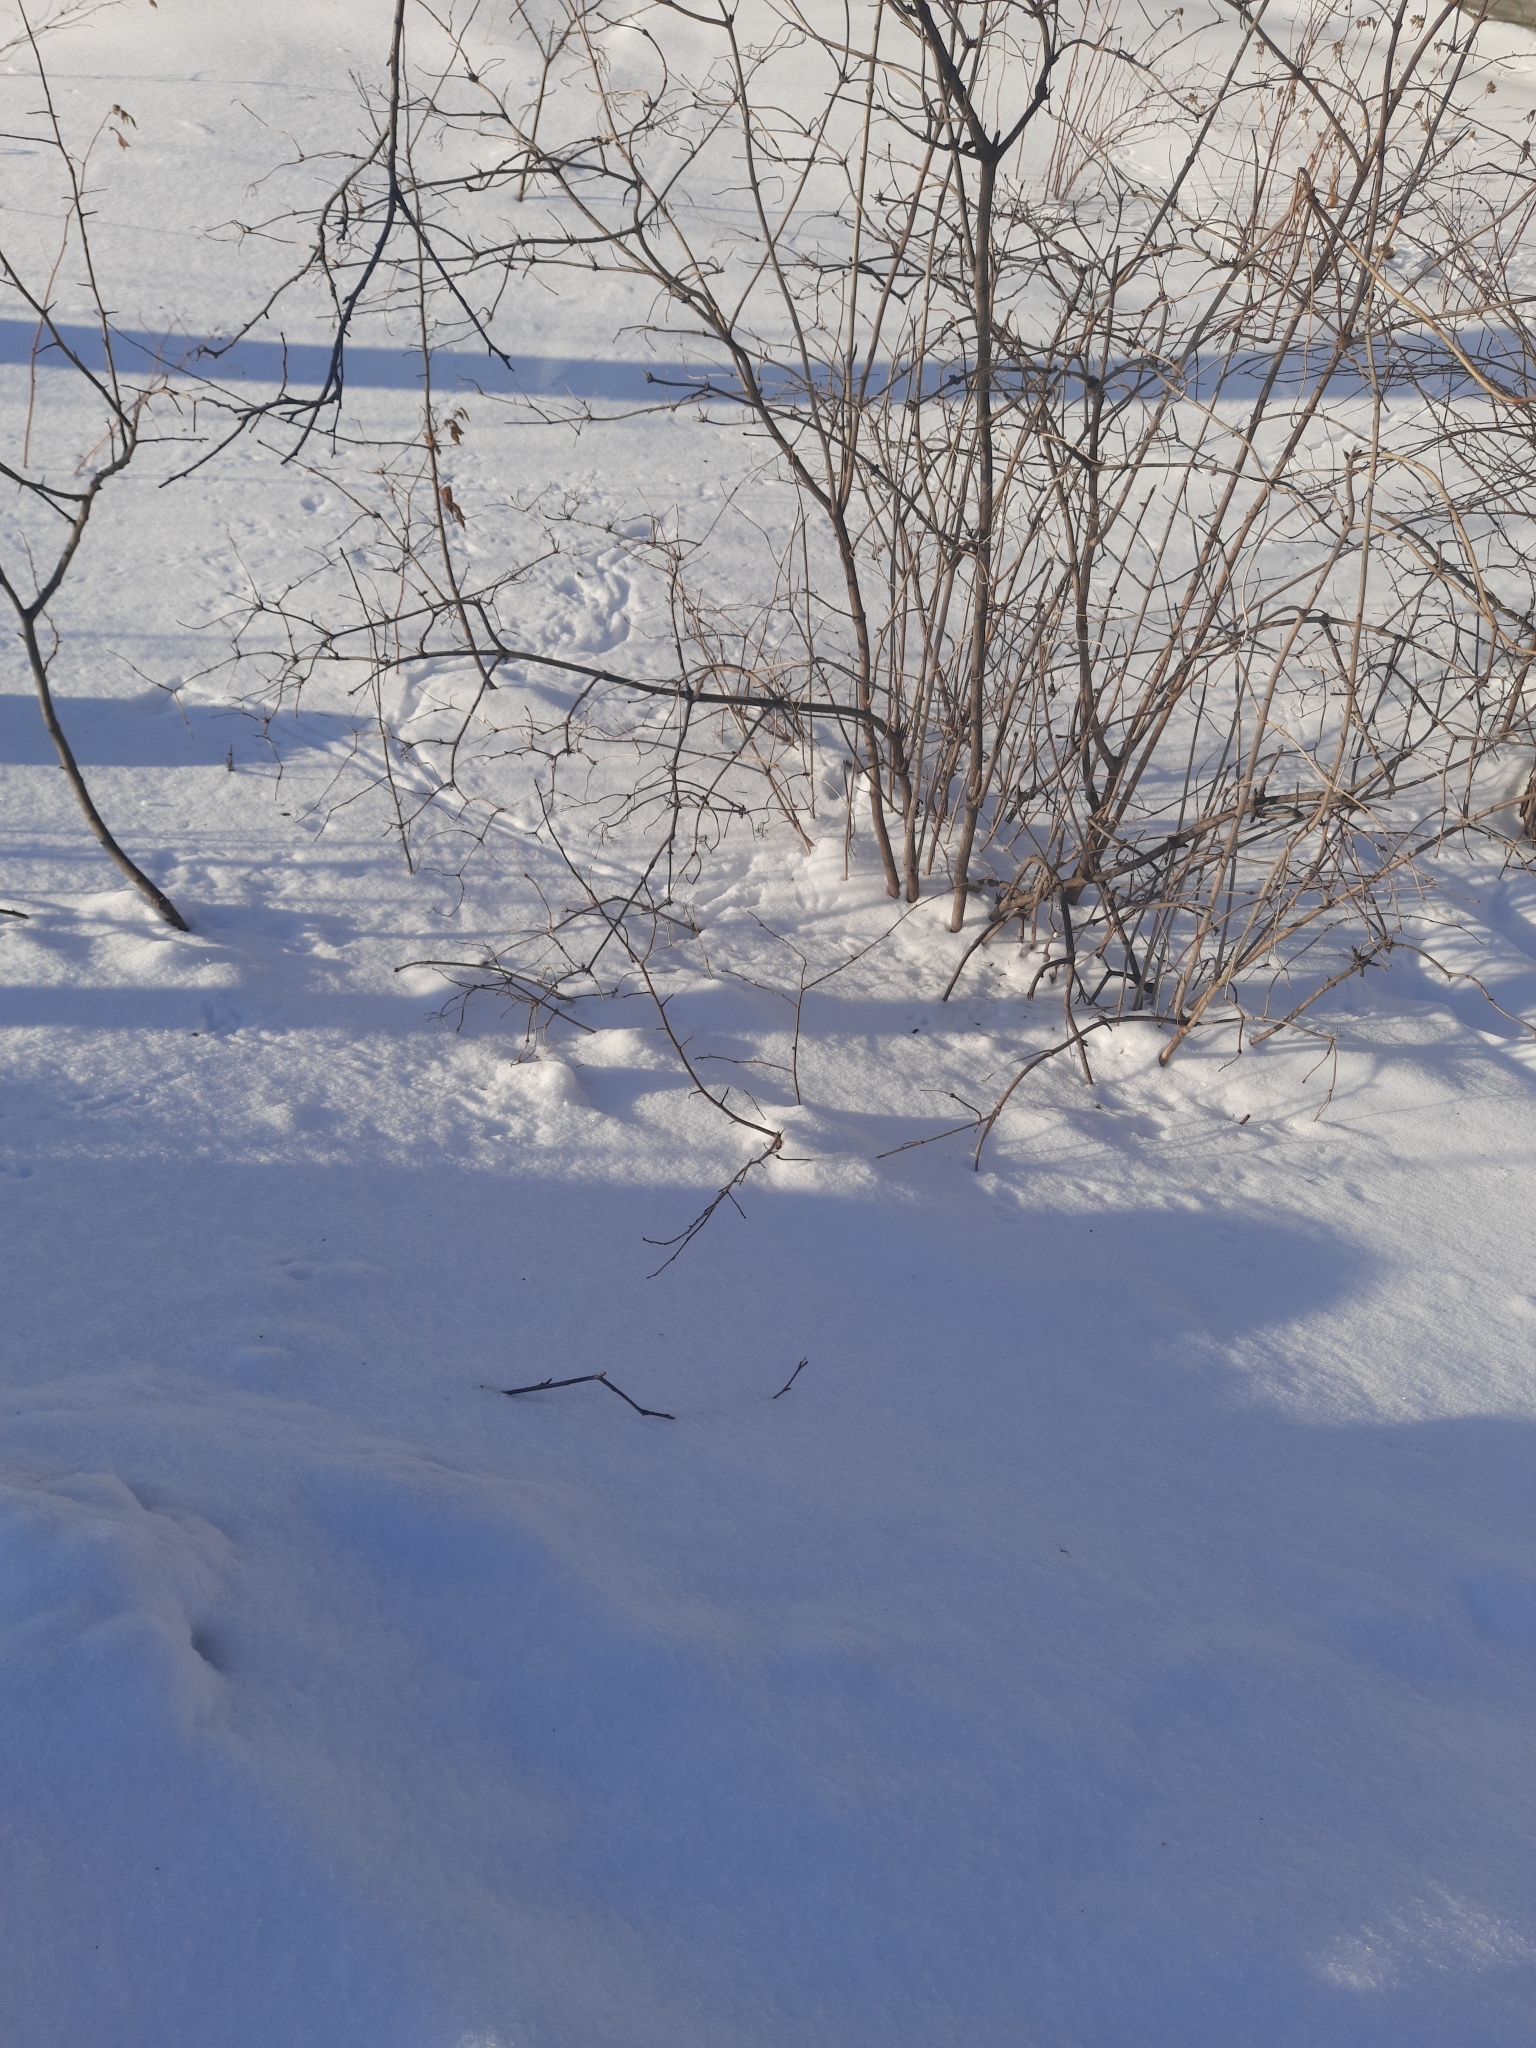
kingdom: Plantae
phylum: Tracheophyta
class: Magnoliopsida
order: Dipsacales
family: Viburnaceae
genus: Viburnum
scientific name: Viburnum opulus
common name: Guelder-rose
